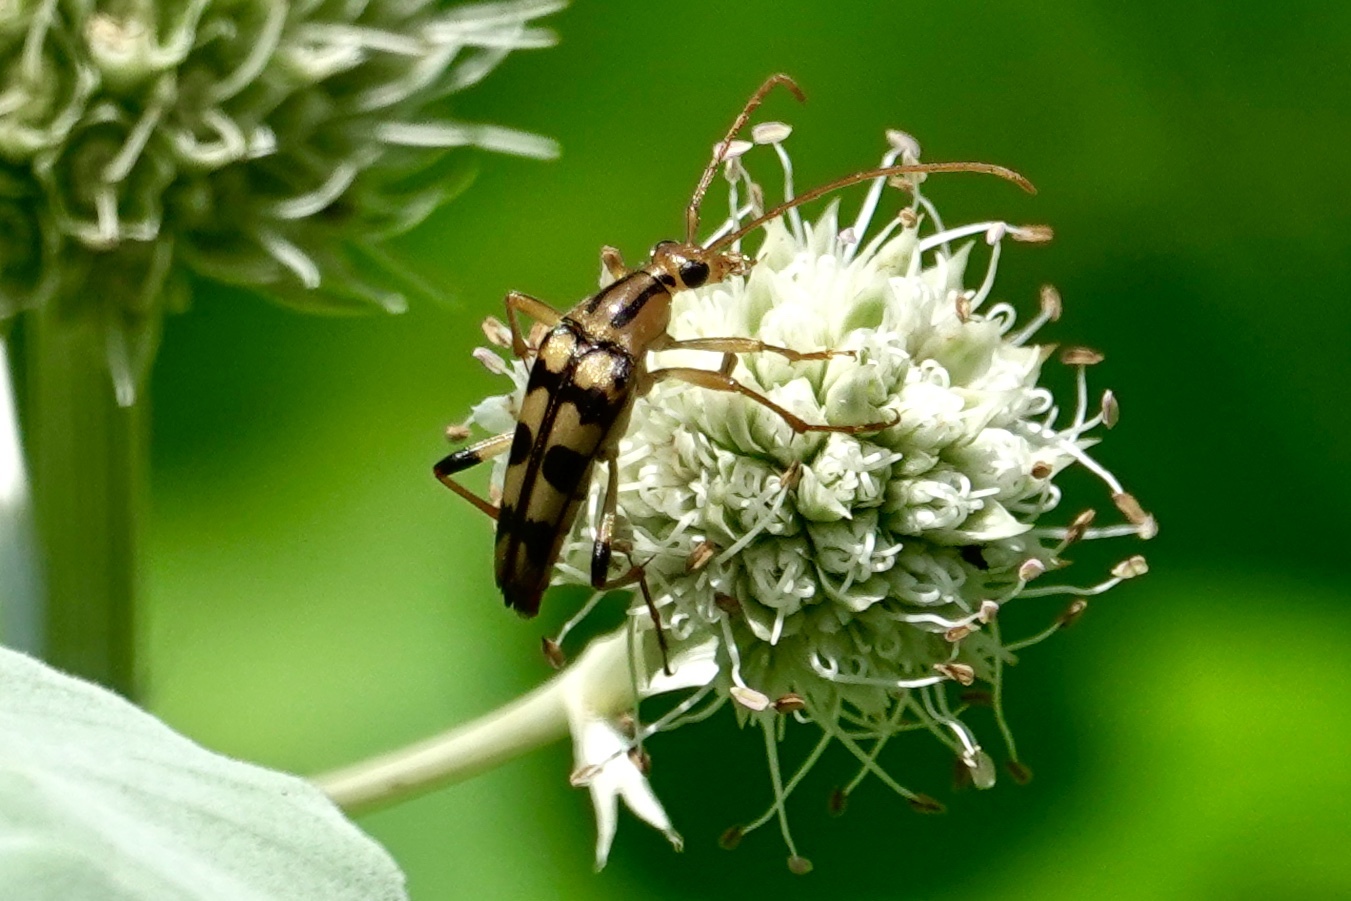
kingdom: Animalia
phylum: Arthropoda
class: Insecta
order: Coleoptera
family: Cerambycidae
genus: Strangalia
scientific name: Strangalia luteicornis
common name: Yellow-horned flower longhorn beetle
